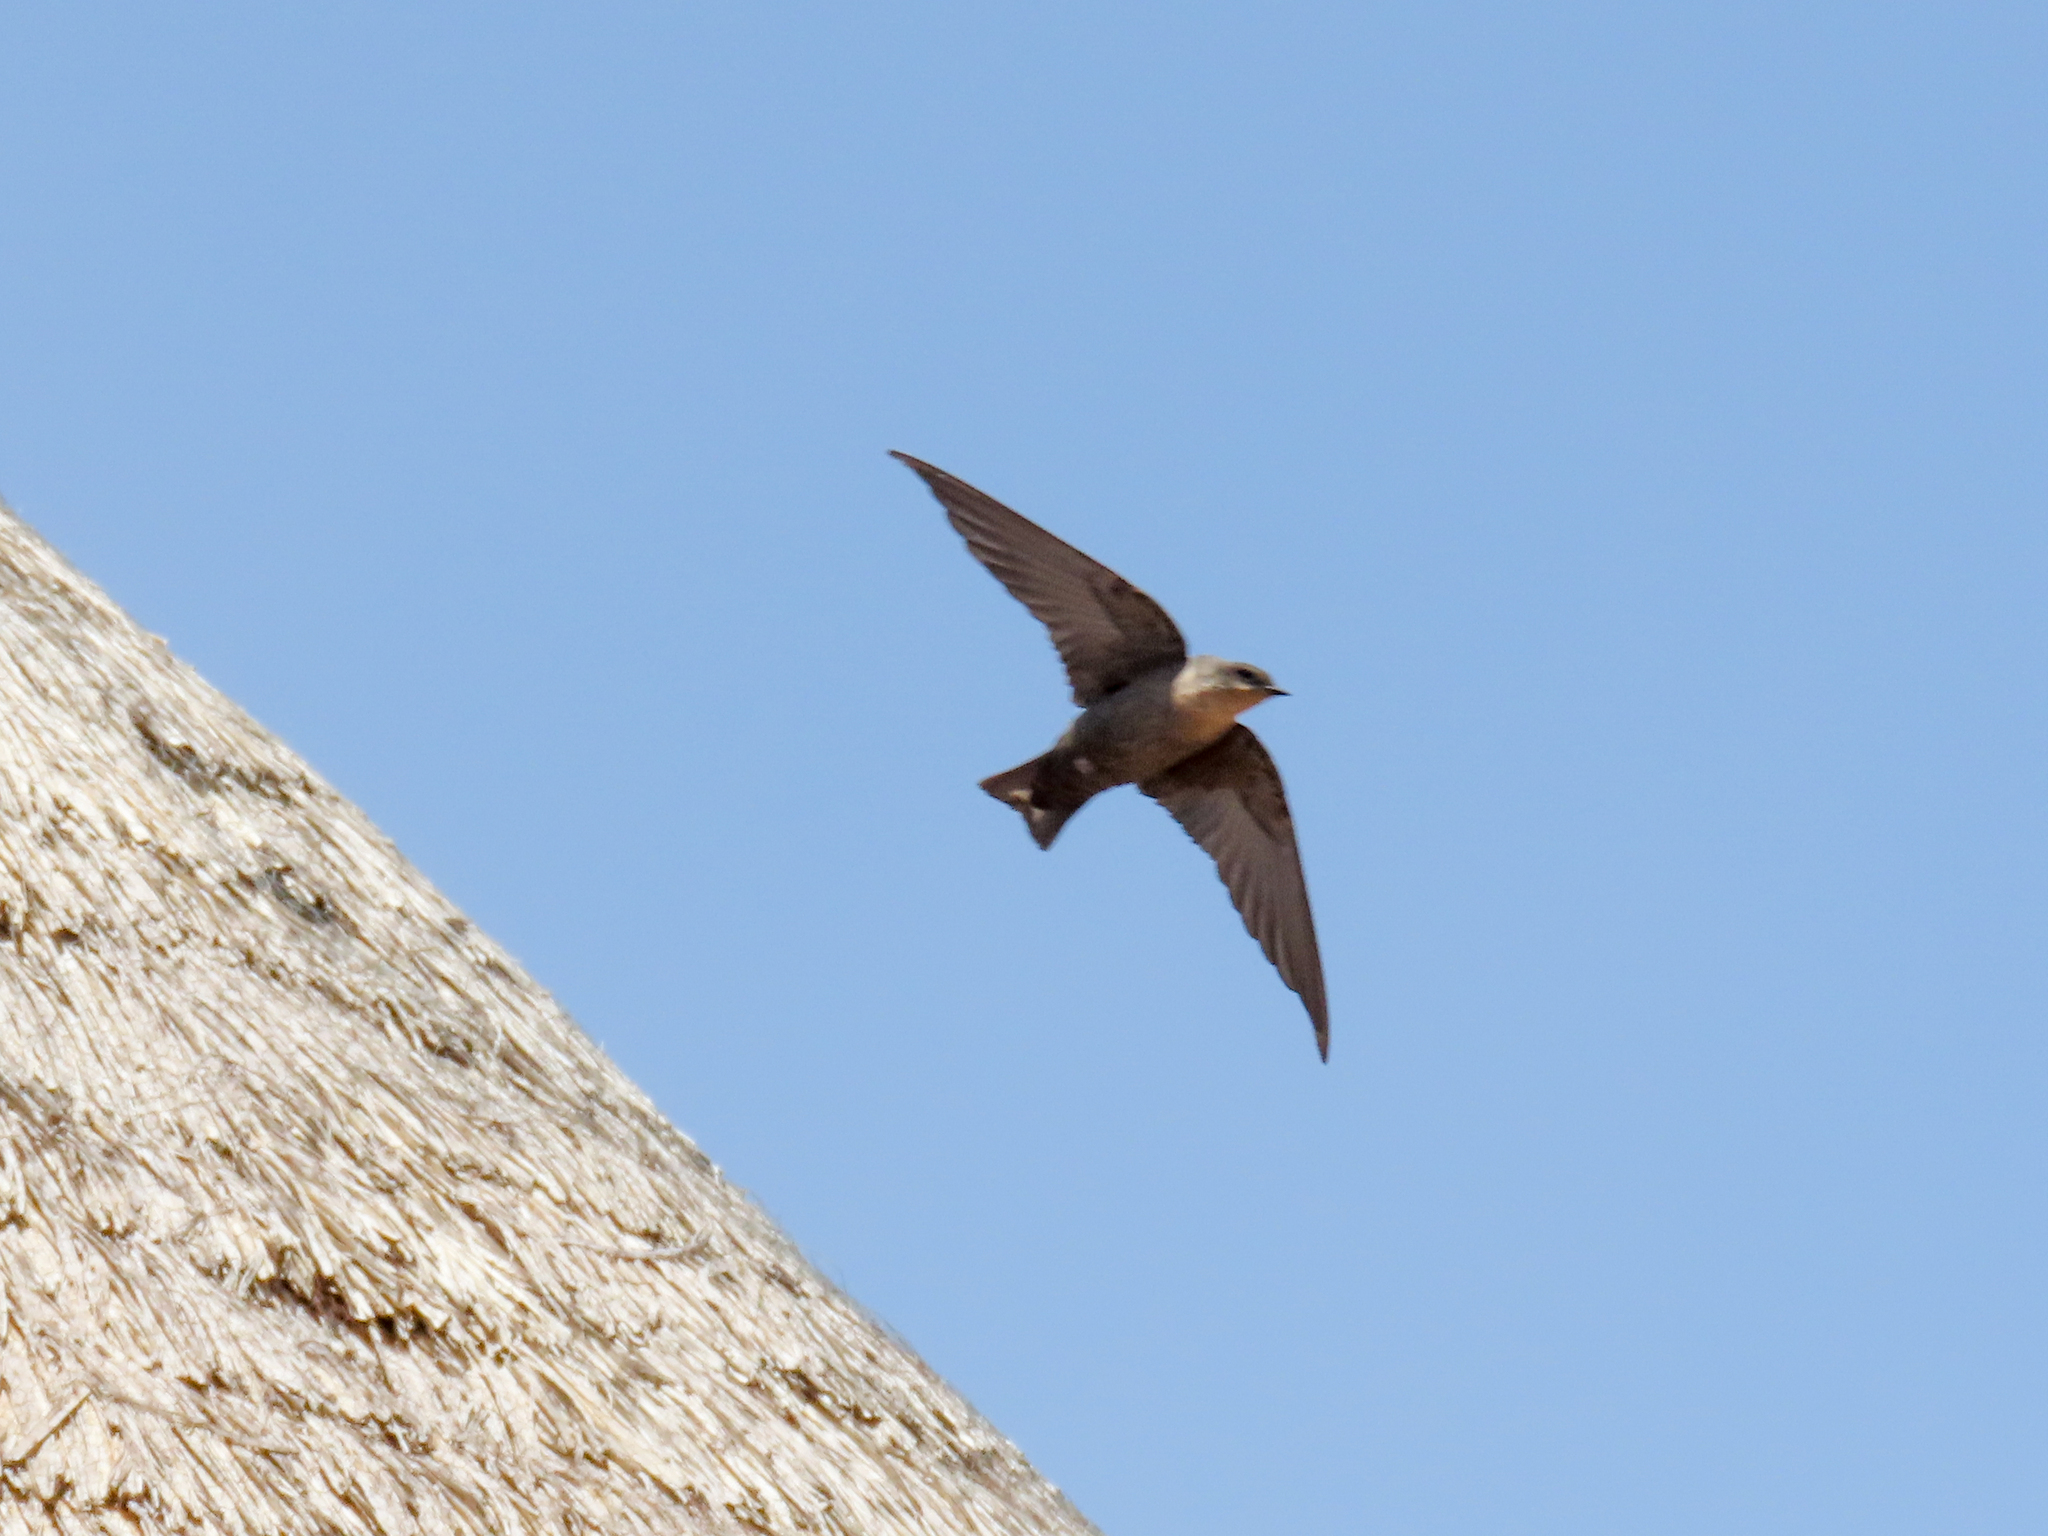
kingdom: Animalia
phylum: Chordata
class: Aves
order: Passeriformes
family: Hirundinidae
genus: Ptyonoprogne
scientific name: Ptyonoprogne fuligula
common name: Rock martin
